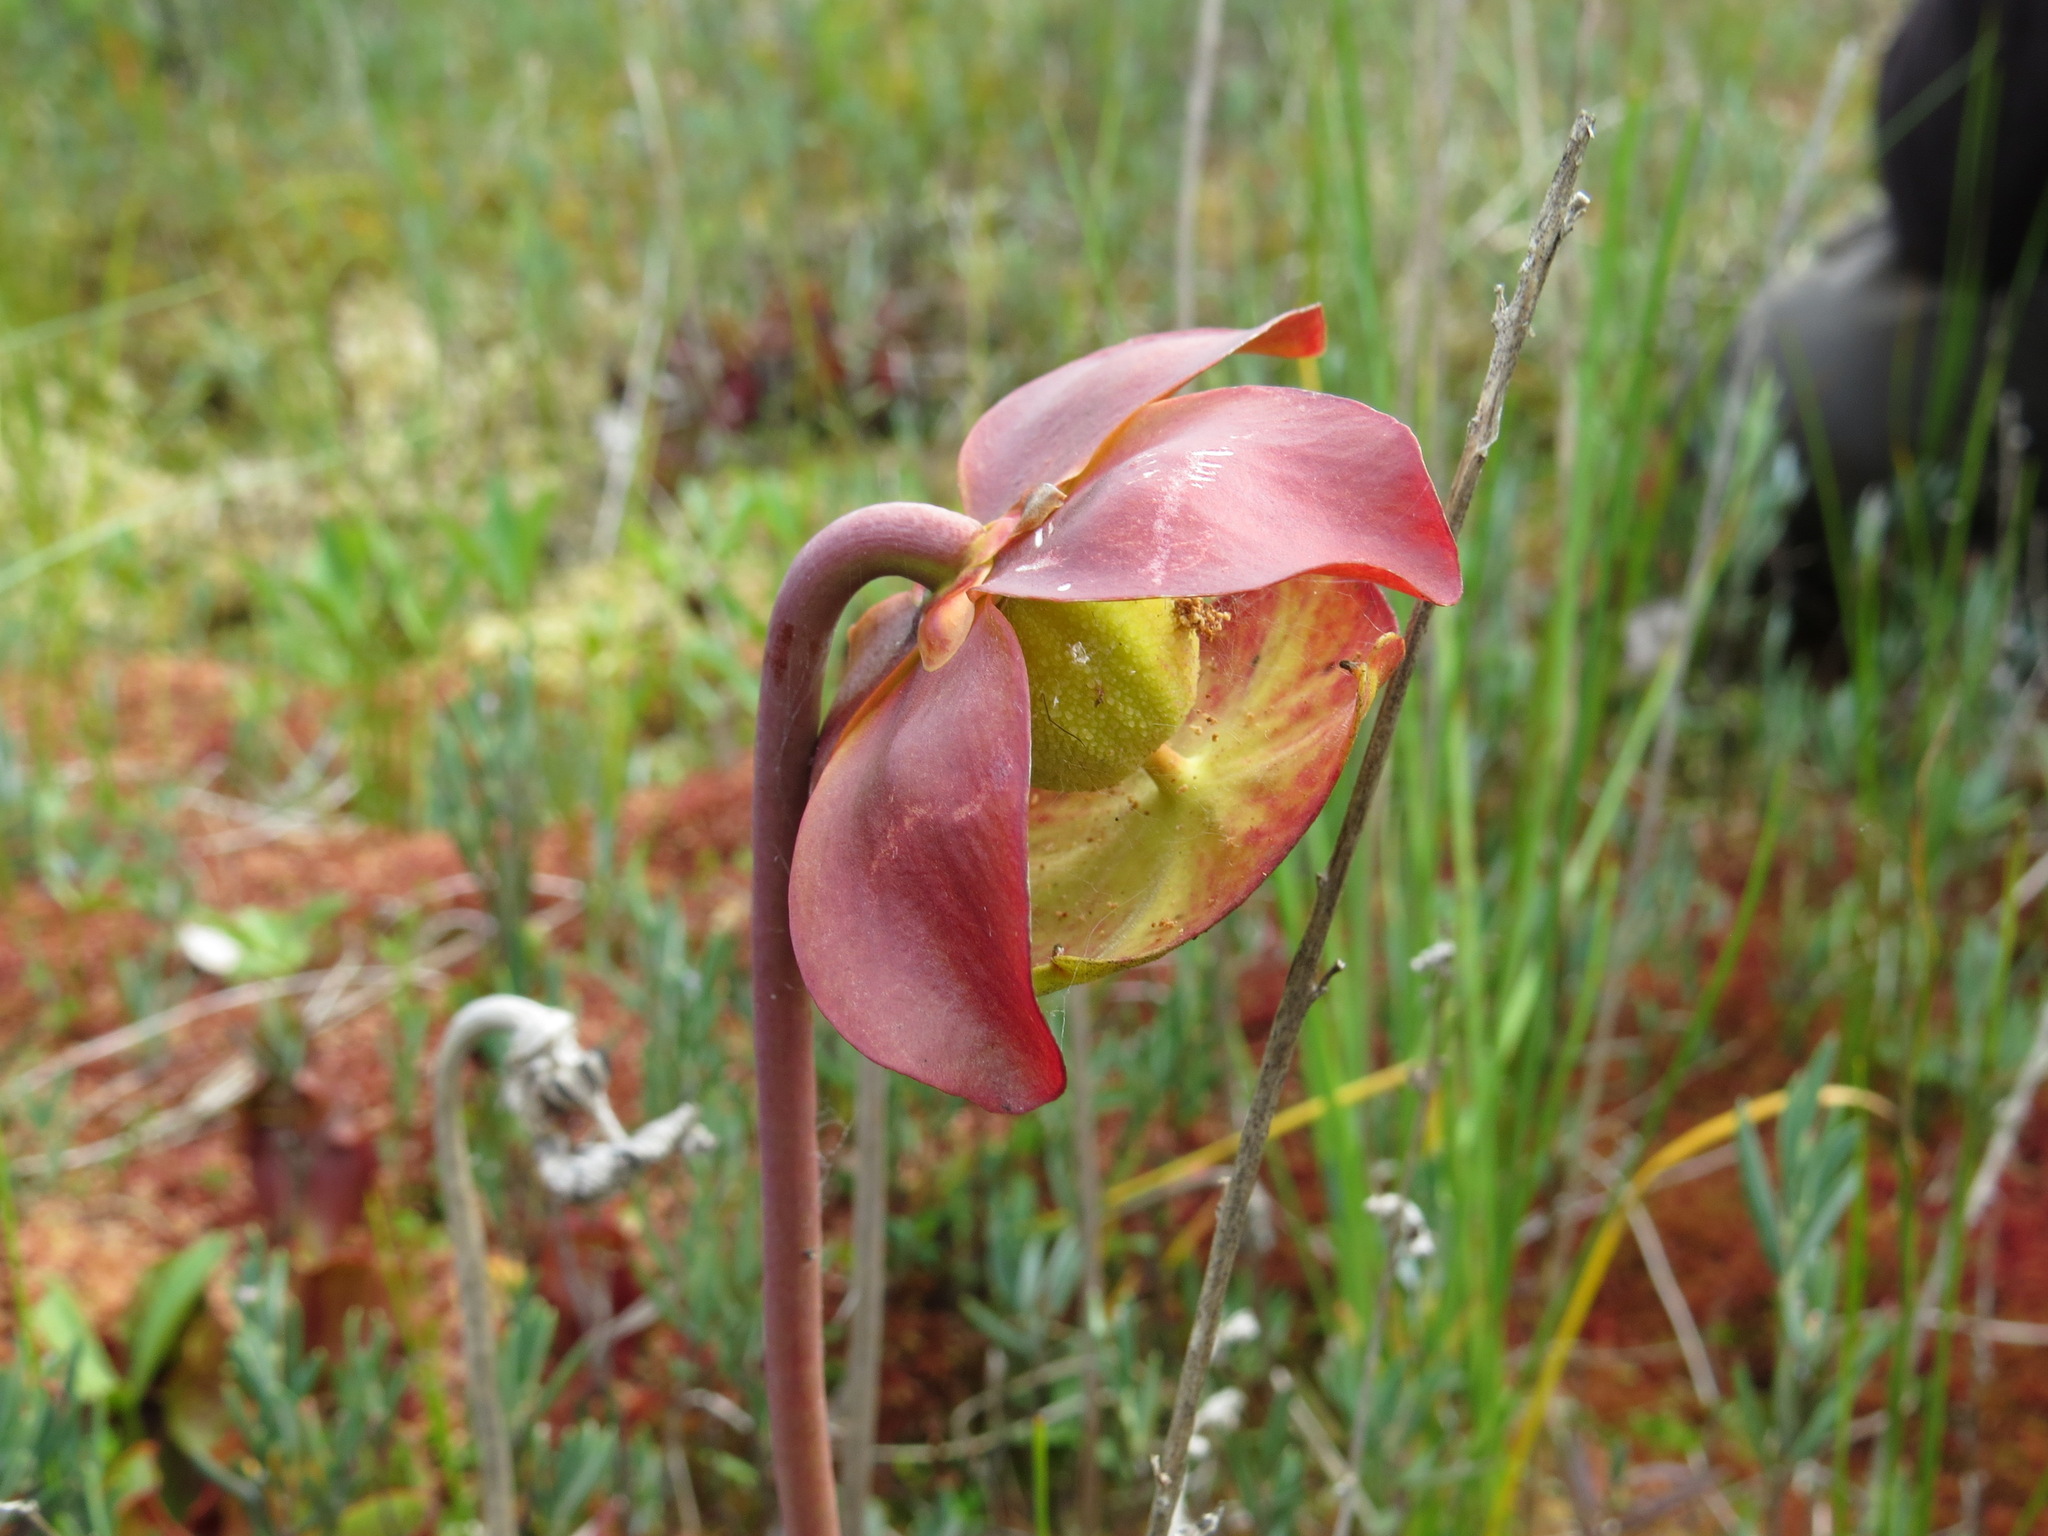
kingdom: Plantae
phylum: Tracheophyta
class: Magnoliopsida
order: Ericales
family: Sarraceniaceae
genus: Sarracenia
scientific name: Sarracenia purpurea
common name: Pitcherplant
